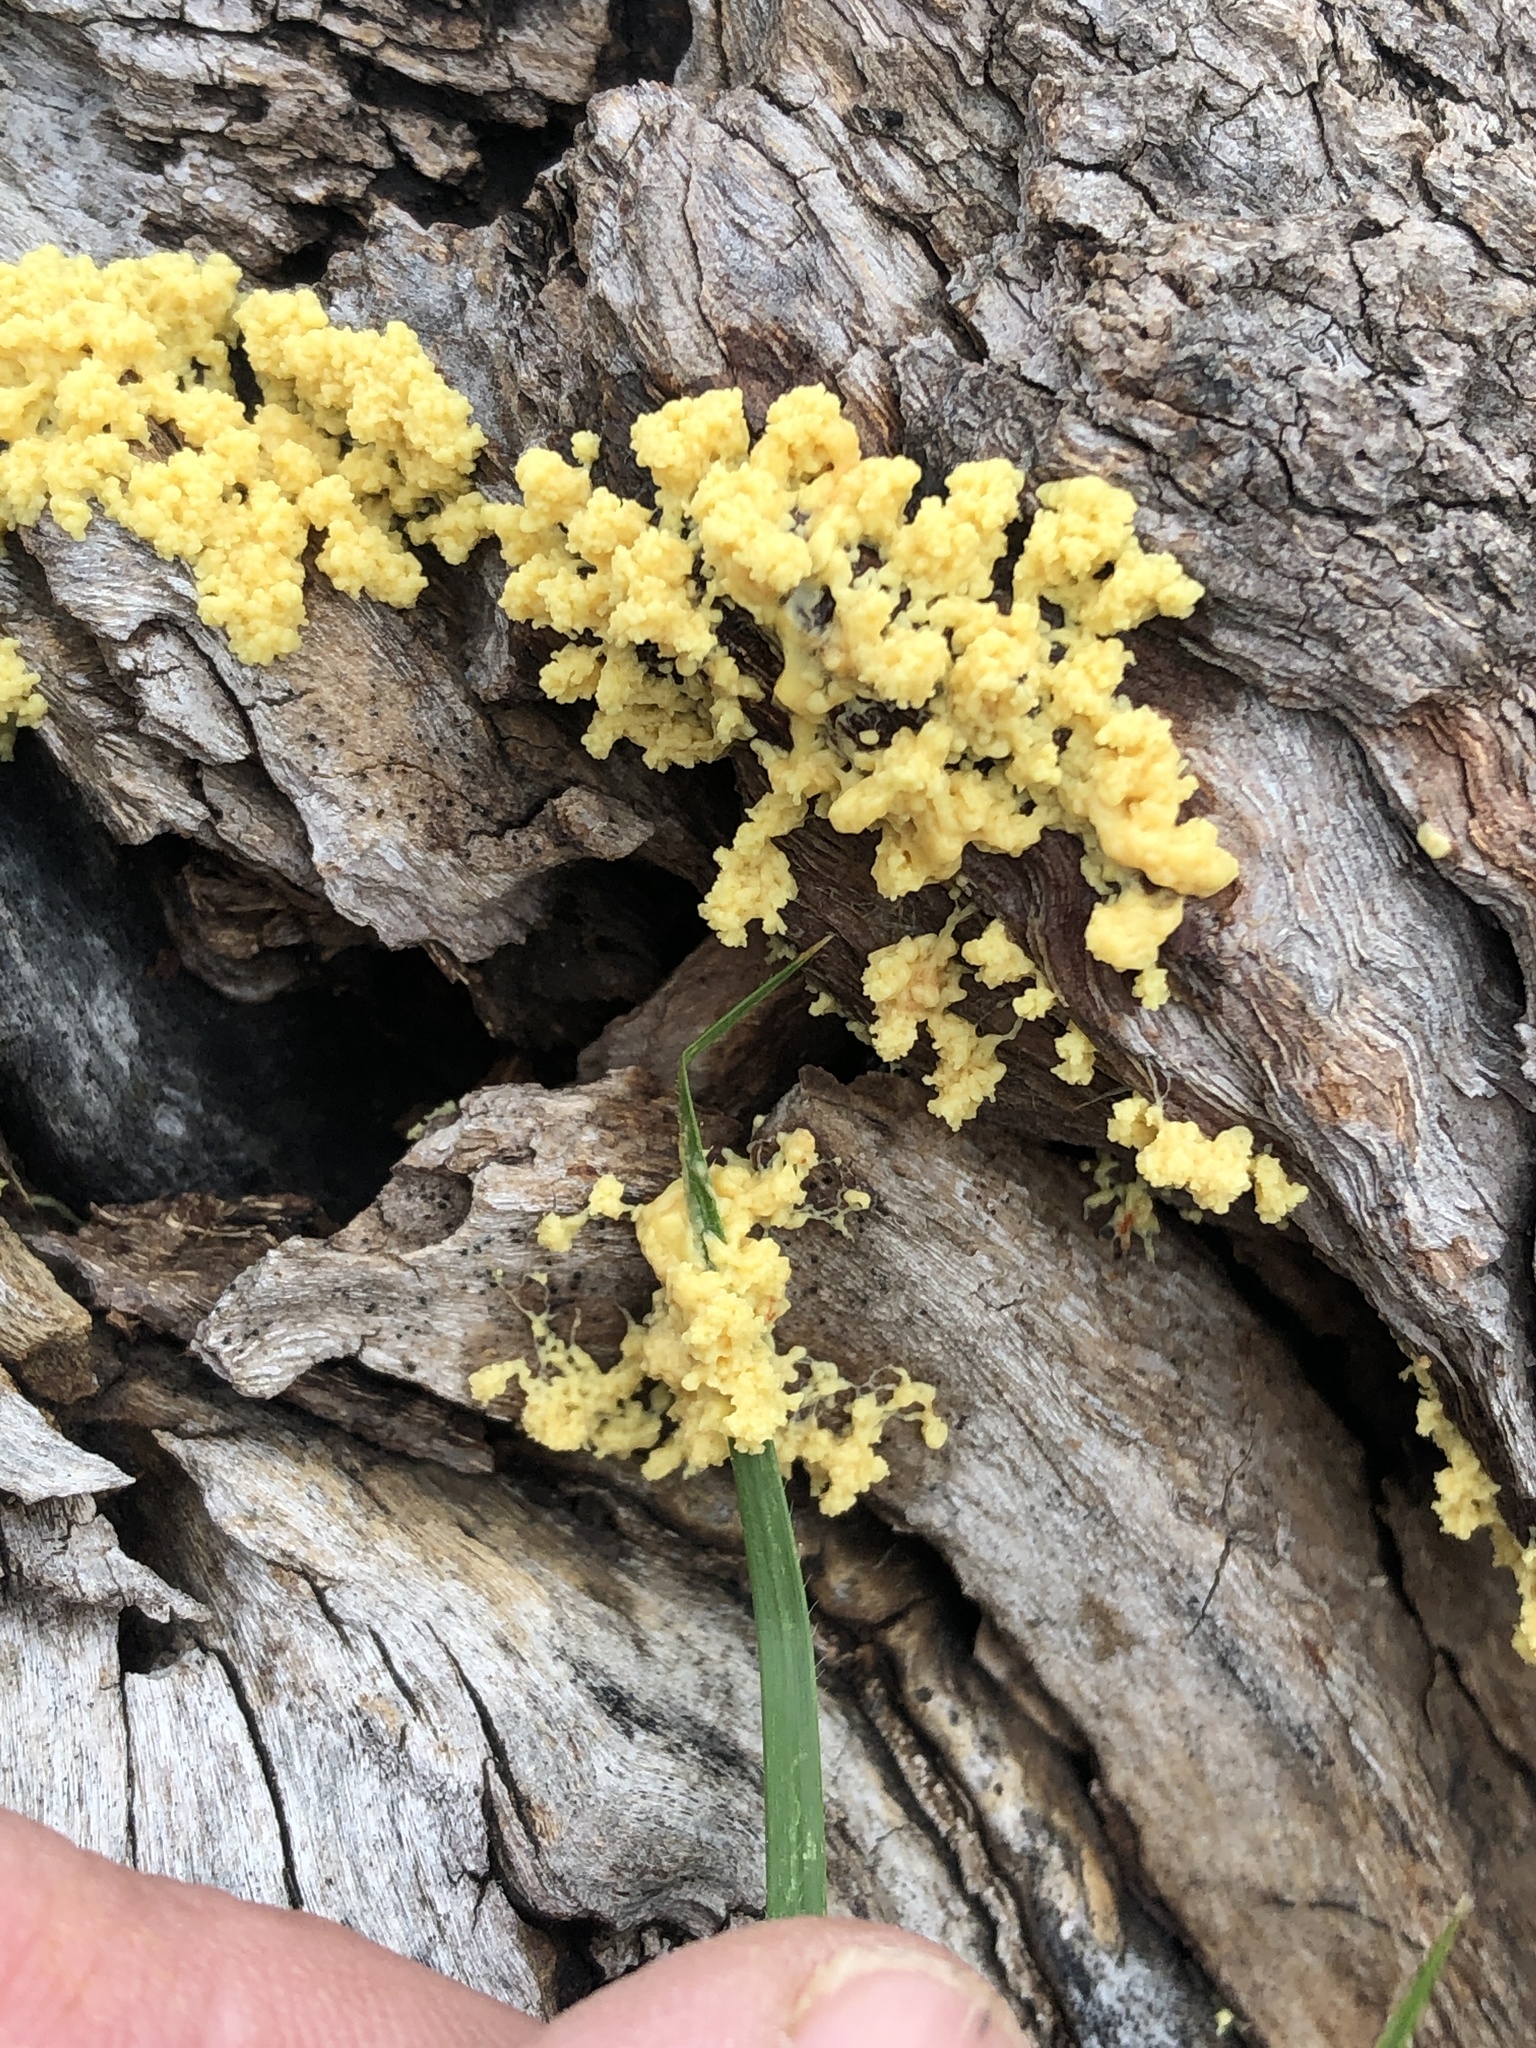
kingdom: Protozoa
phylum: Mycetozoa
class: Myxomycetes
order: Physarales
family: Physaraceae
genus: Didymium
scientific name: Didymium
